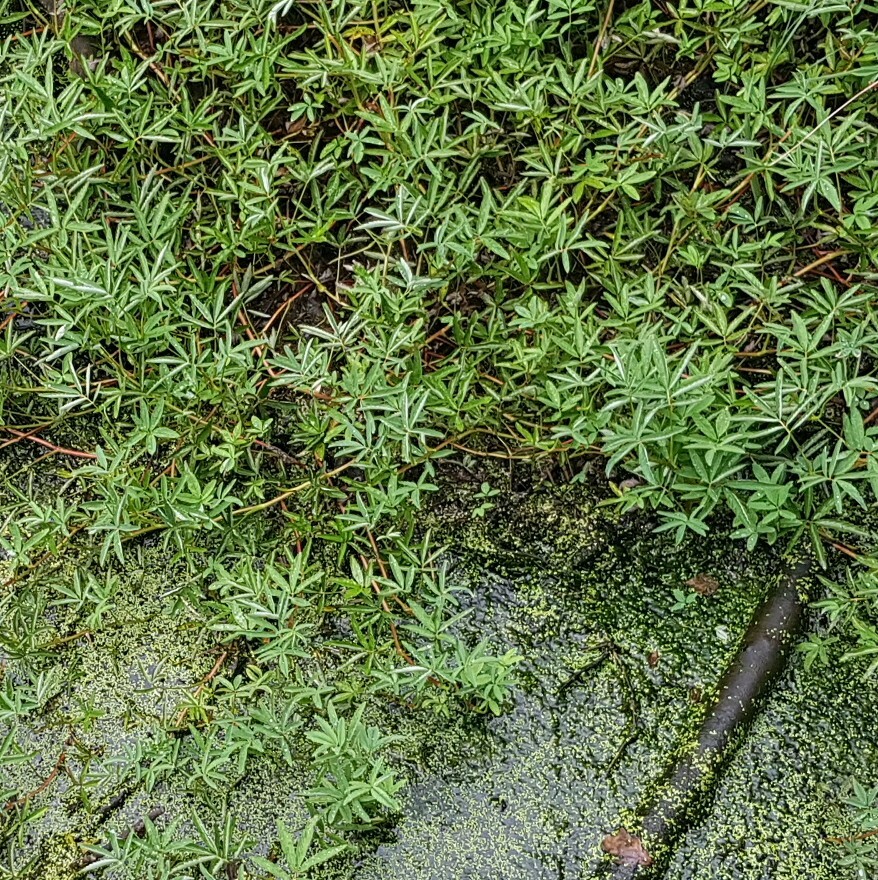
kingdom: Plantae
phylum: Tracheophyta
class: Magnoliopsida
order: Rosales
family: Rosaceae
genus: Comarum
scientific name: Comarum palustre
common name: Marsh cinquefoil
